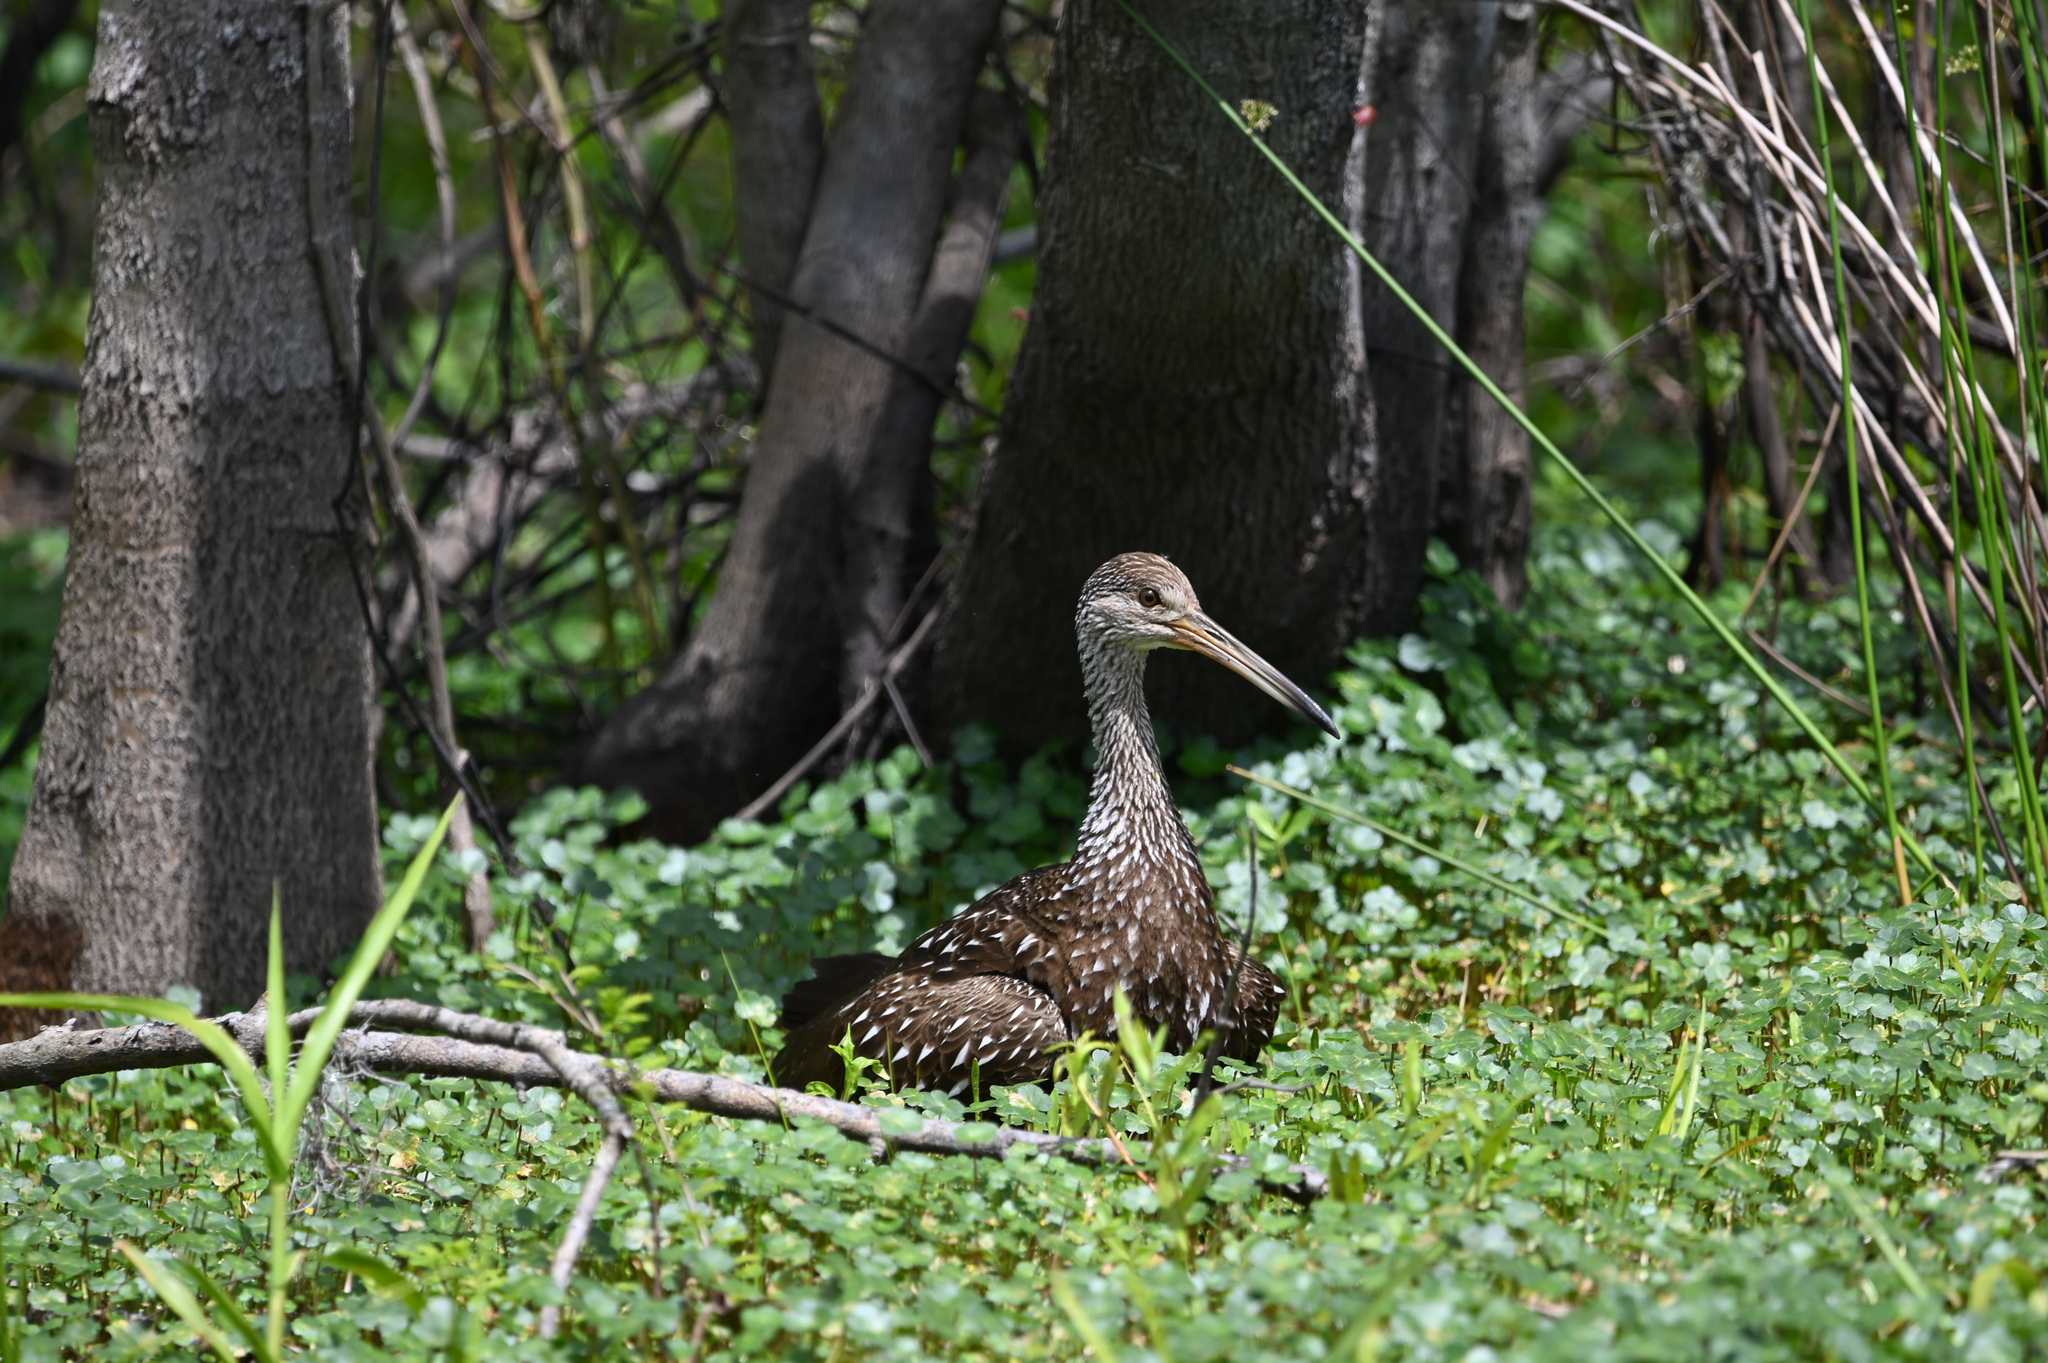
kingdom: Animalia
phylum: Chordata
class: Aves
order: Gruiformes
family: Aramidae
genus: Aramus
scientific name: Aramus guarauna
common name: Limpkin
